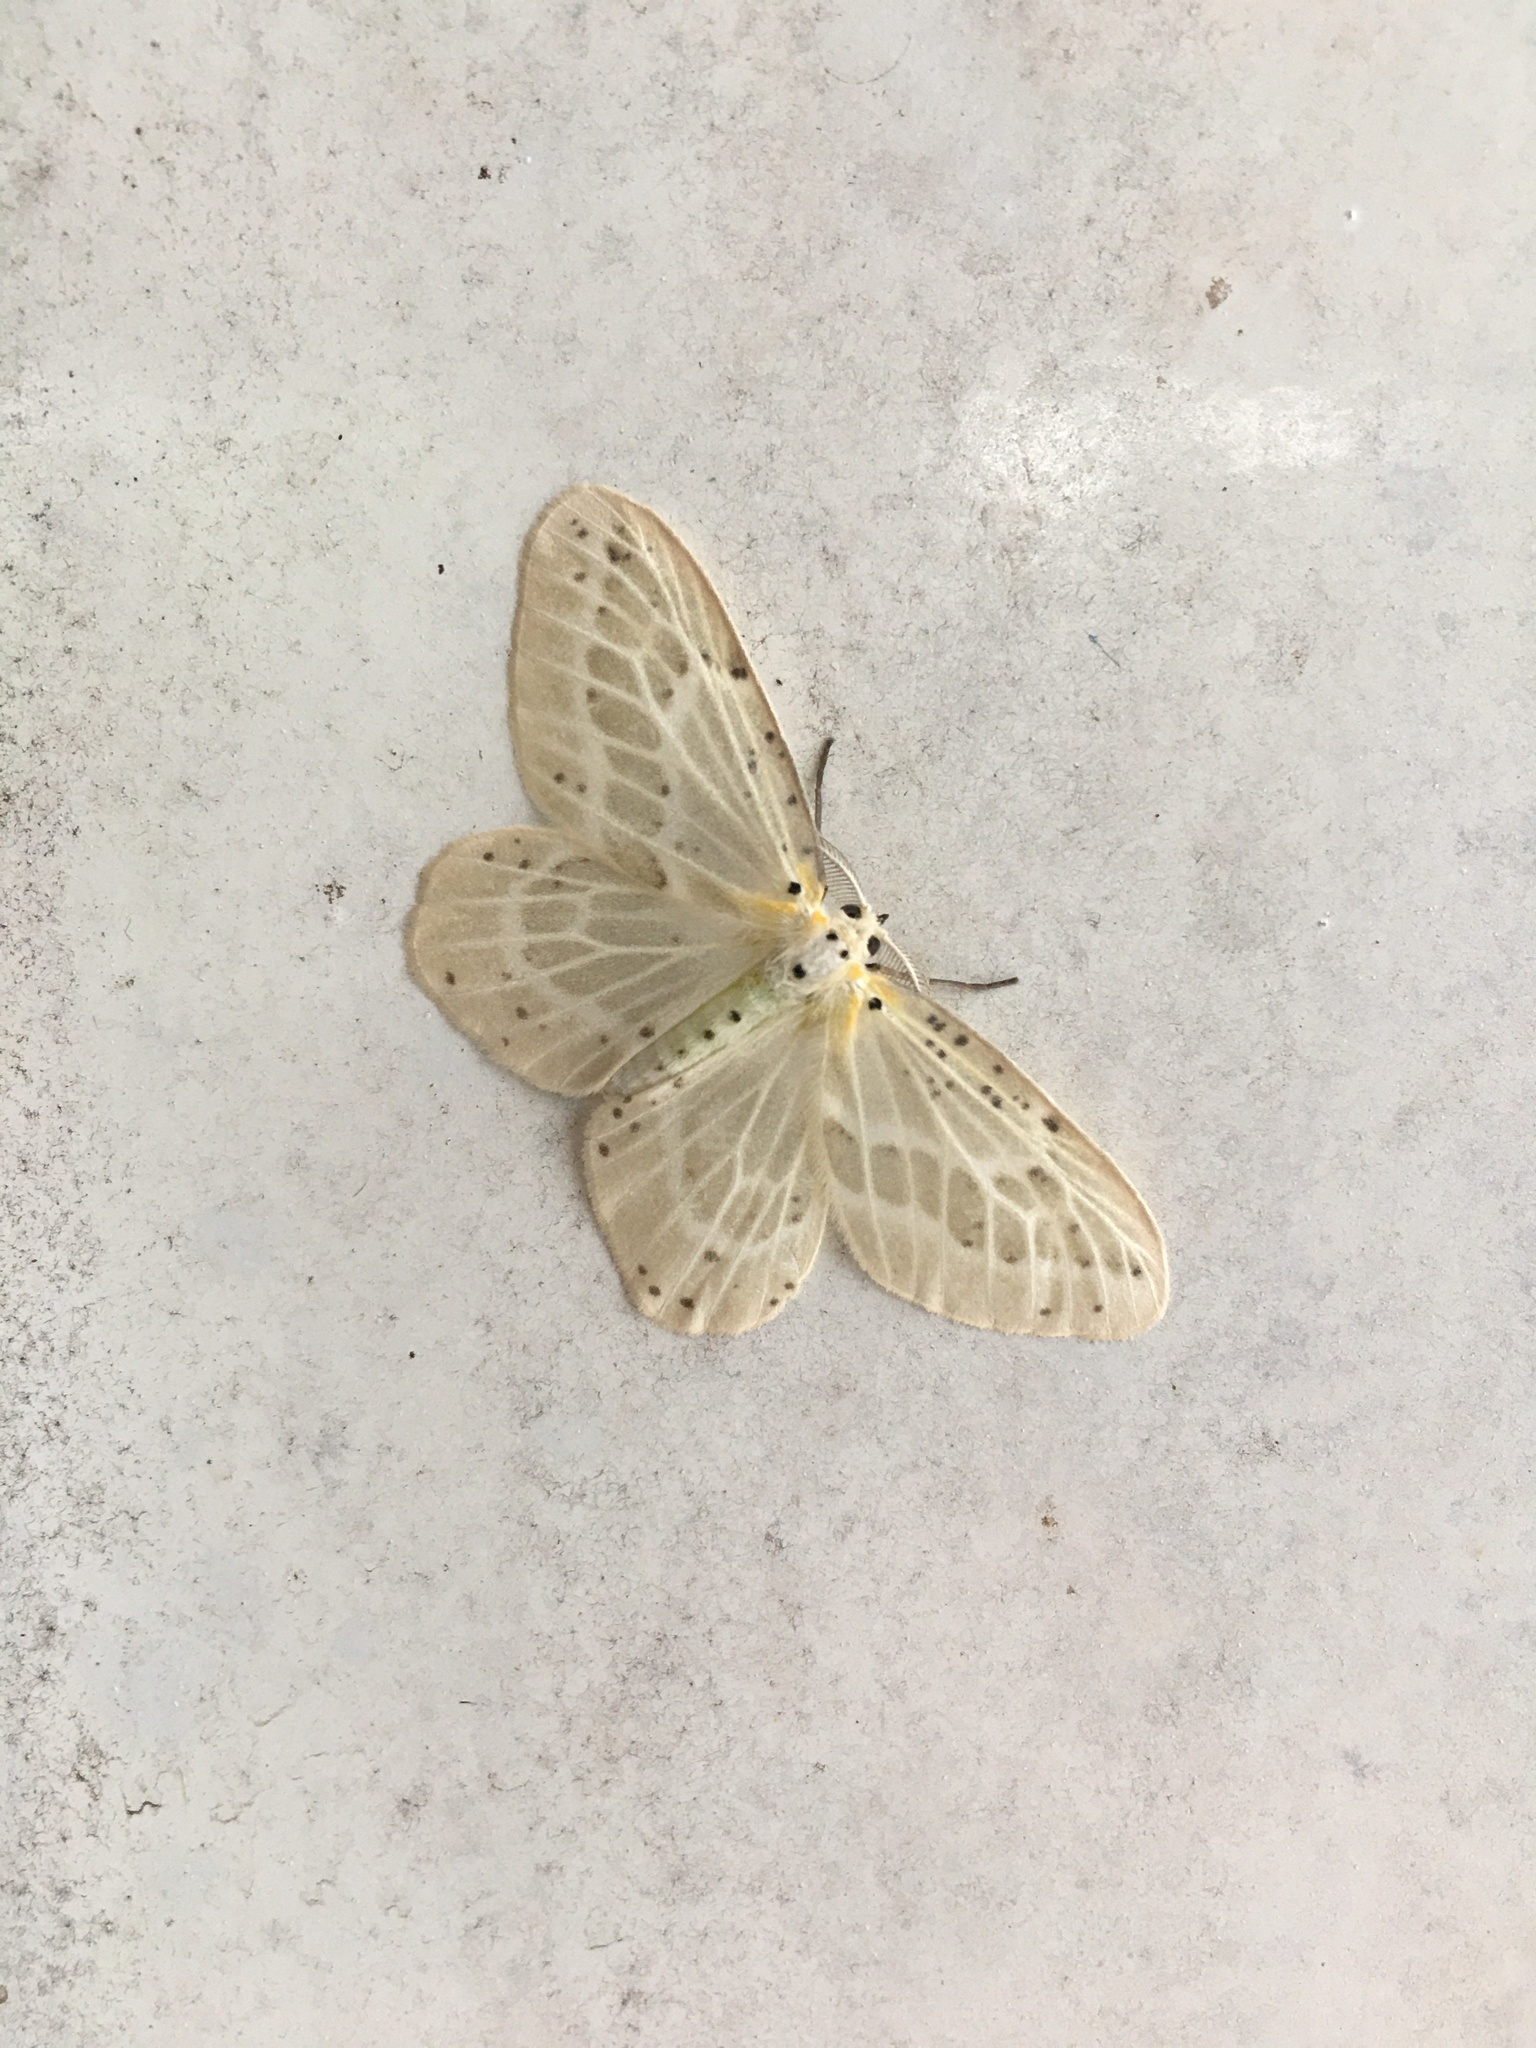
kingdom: Animalia
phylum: Arthropoda
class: Insecta
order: Lepidoptera
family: Geometridae
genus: Genussa
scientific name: Genussa simplex
